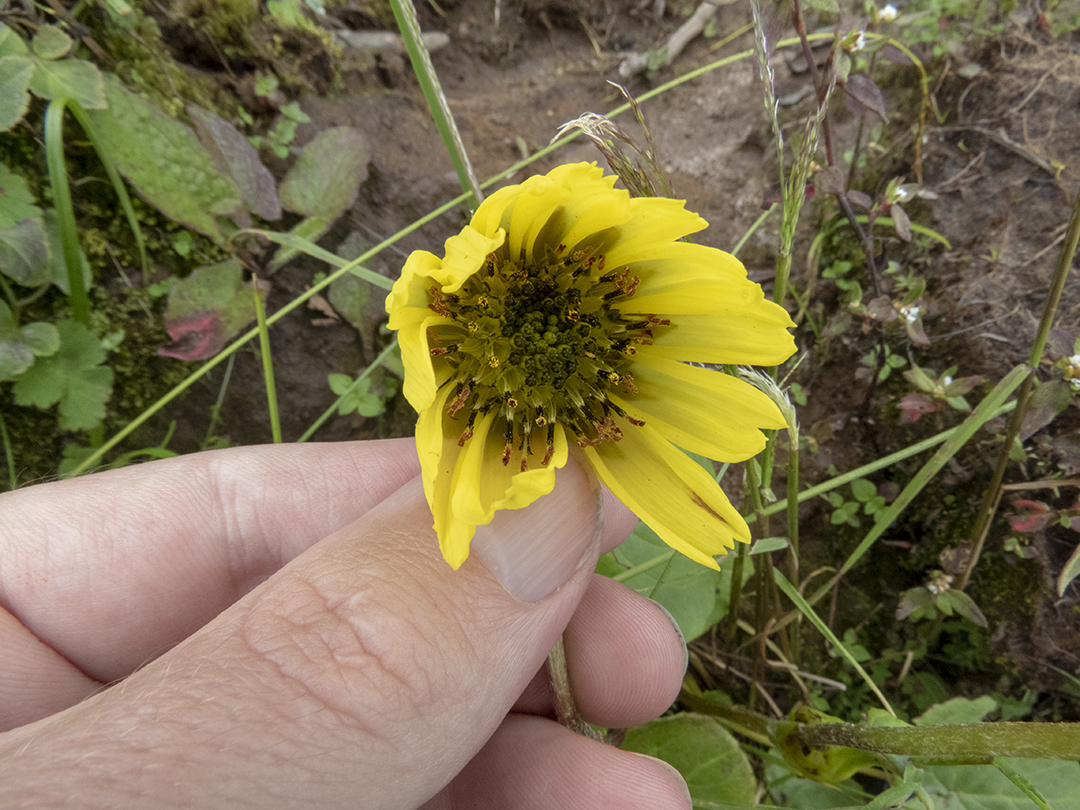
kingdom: Plantae
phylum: Tracheophyta
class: Magnoliopsida
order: Asterales
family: Asteraceae
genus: Cremanthodium
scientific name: Cremanthodium decaisnei
